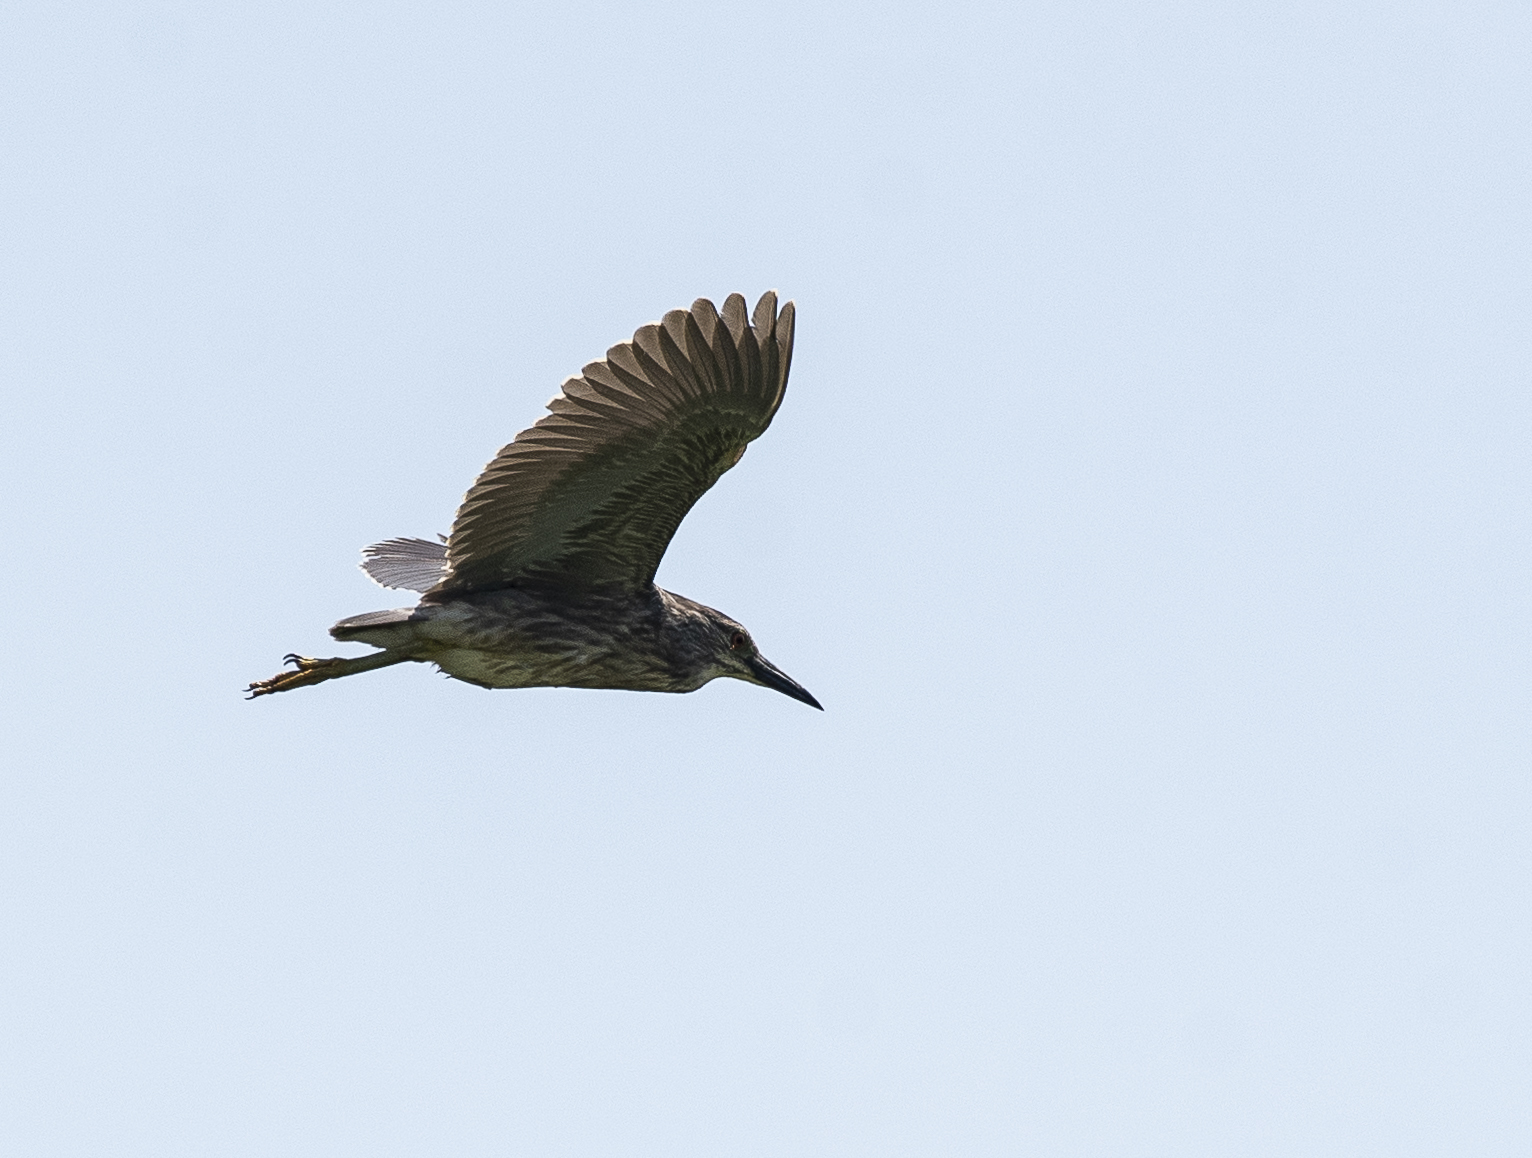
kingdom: Animalia
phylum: Chordata
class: Aves
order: Pelecaniformes
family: Ardeidae
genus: Nycticorax
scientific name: Nycticorax nycticorax
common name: Black-crowned night heron
